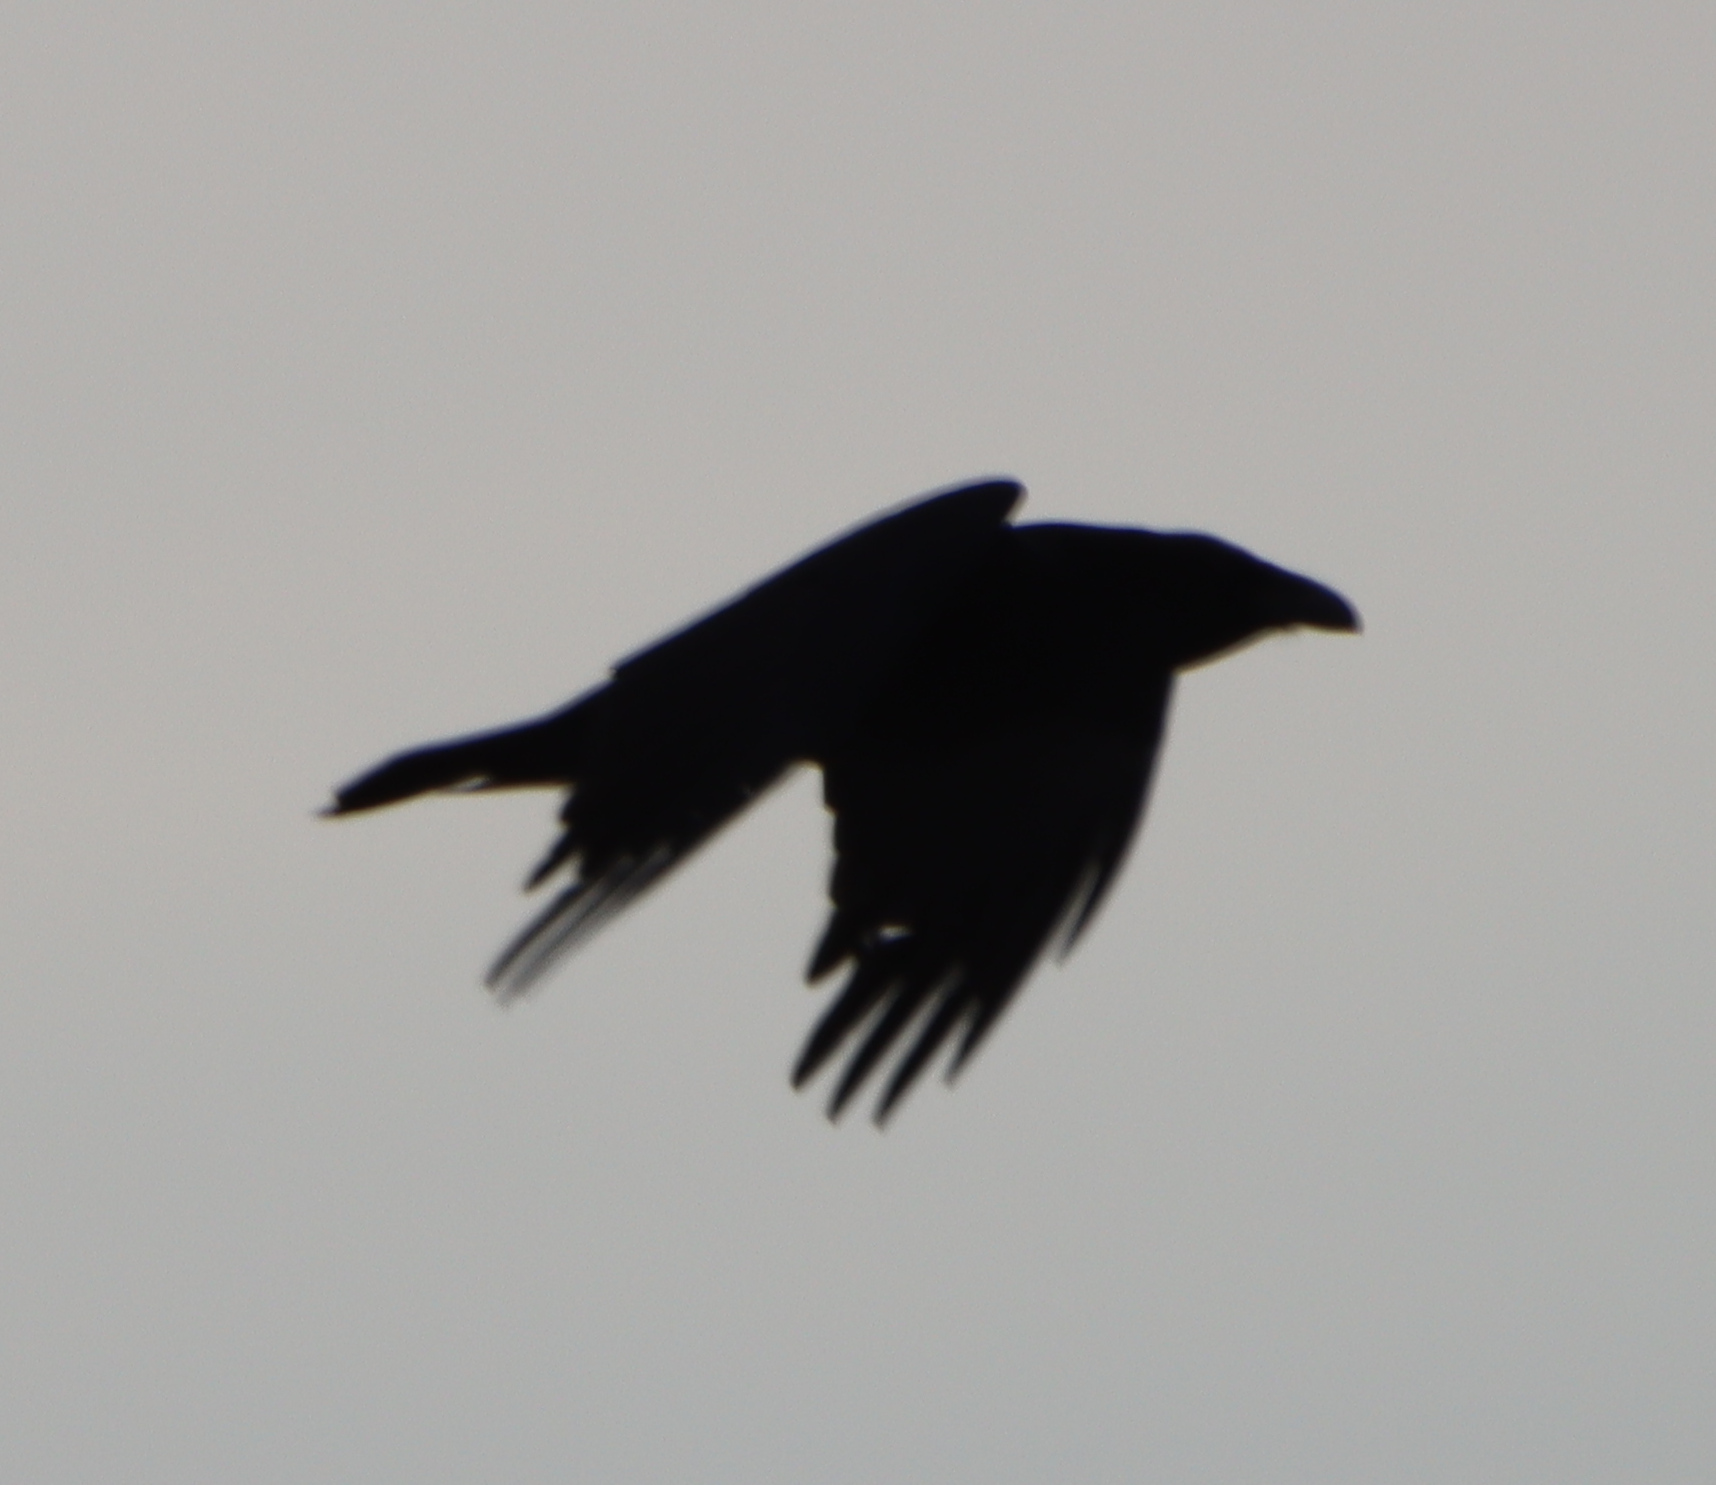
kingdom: Animalia
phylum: Chordata
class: Aves
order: Passeriformes
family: Corvidae
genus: Corvus
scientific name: Corvus corax
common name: Common raven
